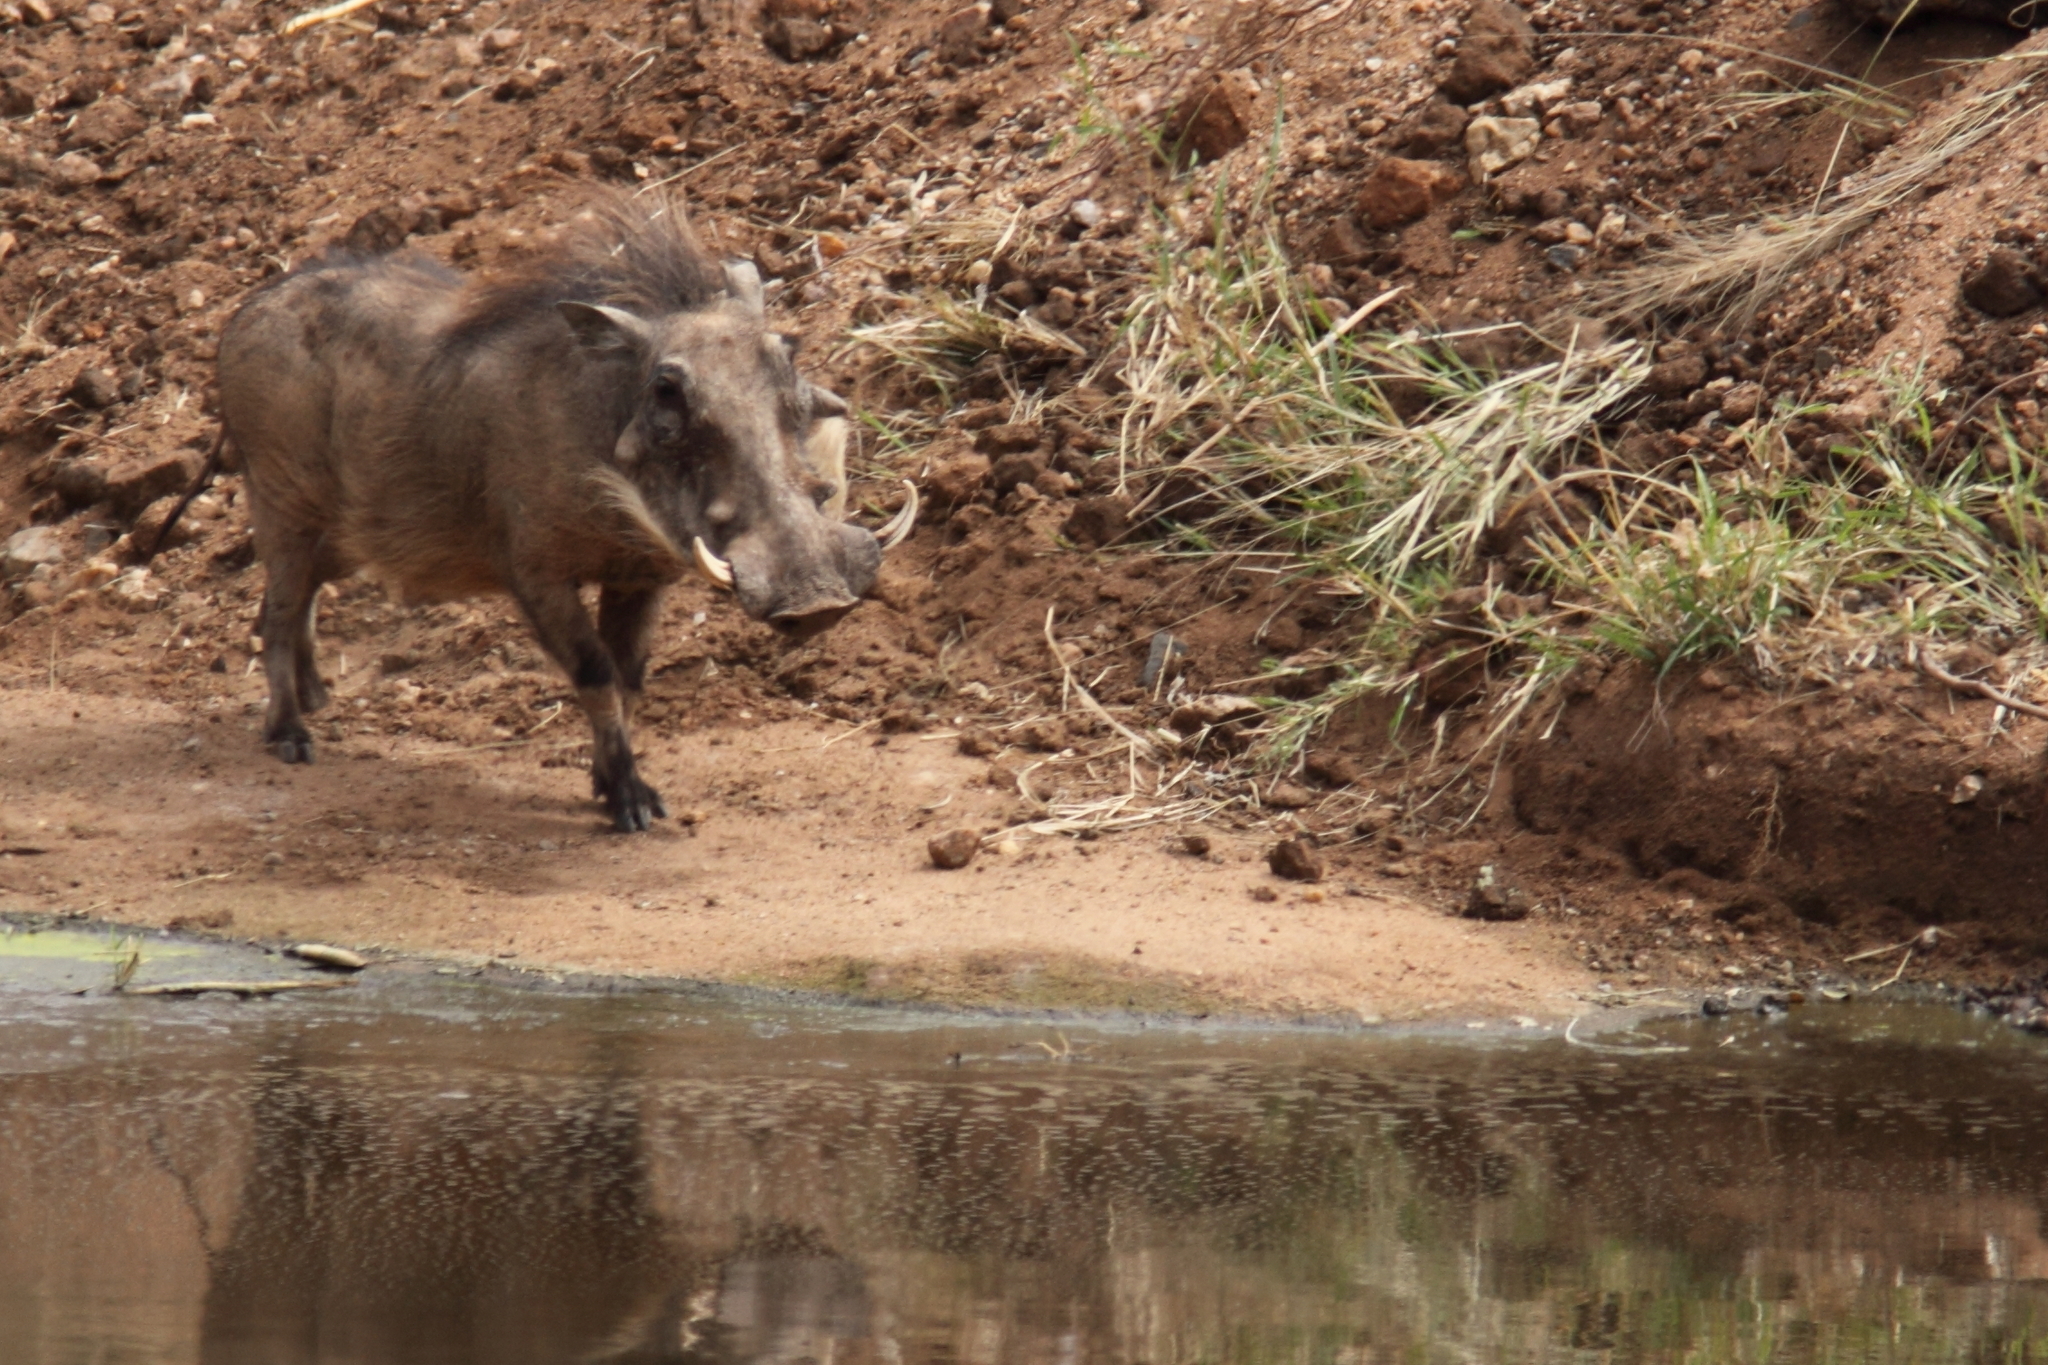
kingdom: Animalia
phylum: Chordata
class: Mammalia
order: Artiodactyla
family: Suidae
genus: Phacochoerus
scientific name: Phacochoerus africanus
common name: Common warthog
